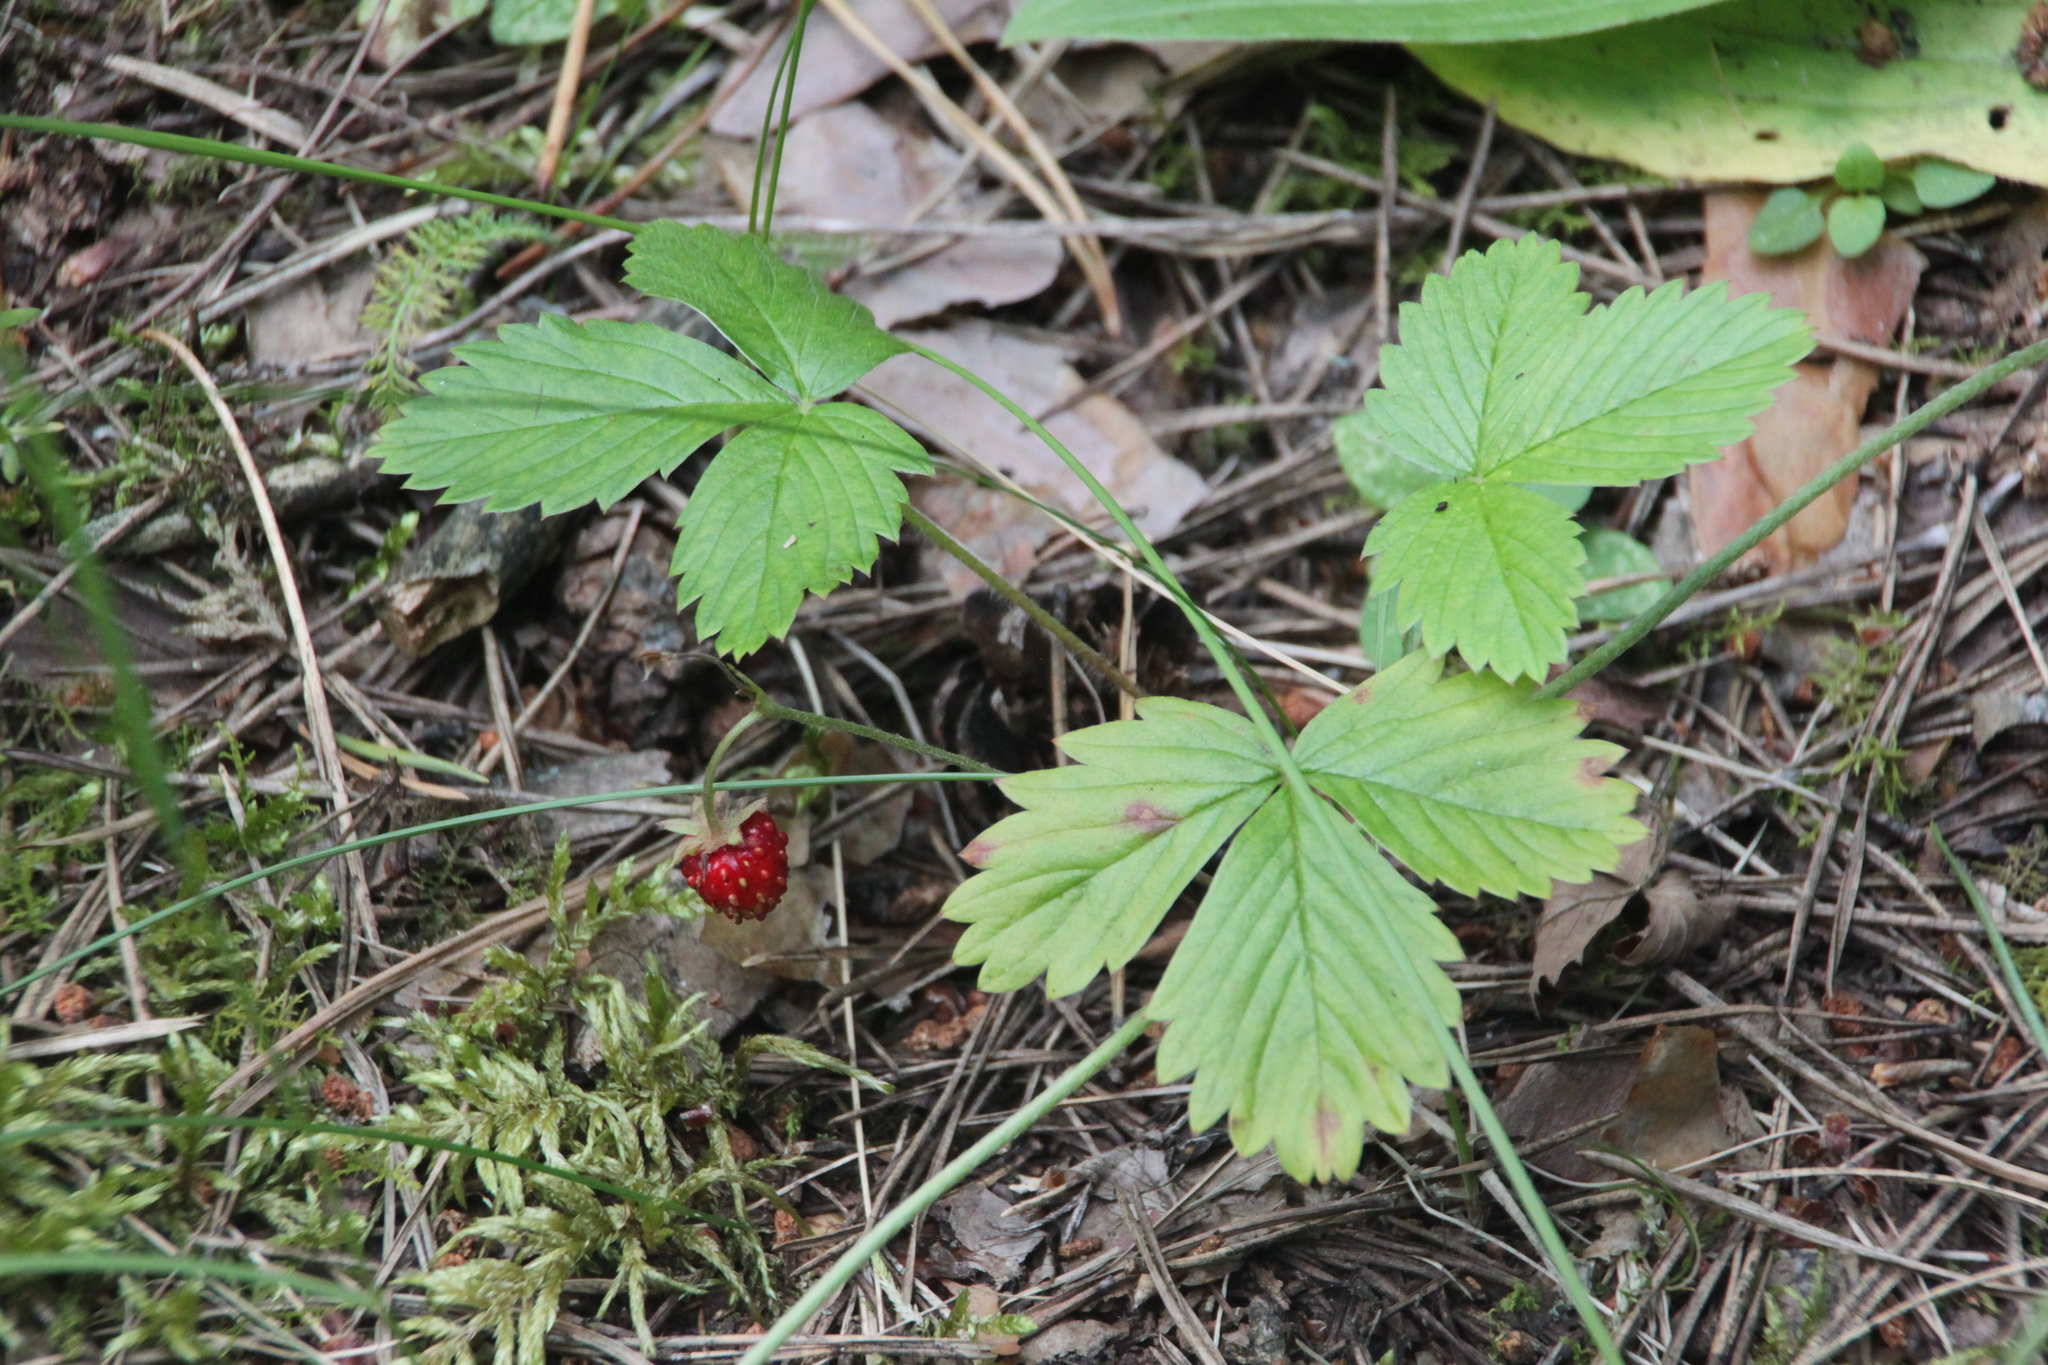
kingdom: Plantae
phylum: Tracheophyta
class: Magnoliopsida
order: Rosales
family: Rosaceae
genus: Fragaria
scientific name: Fragaria vesca
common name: Wild strawberry
